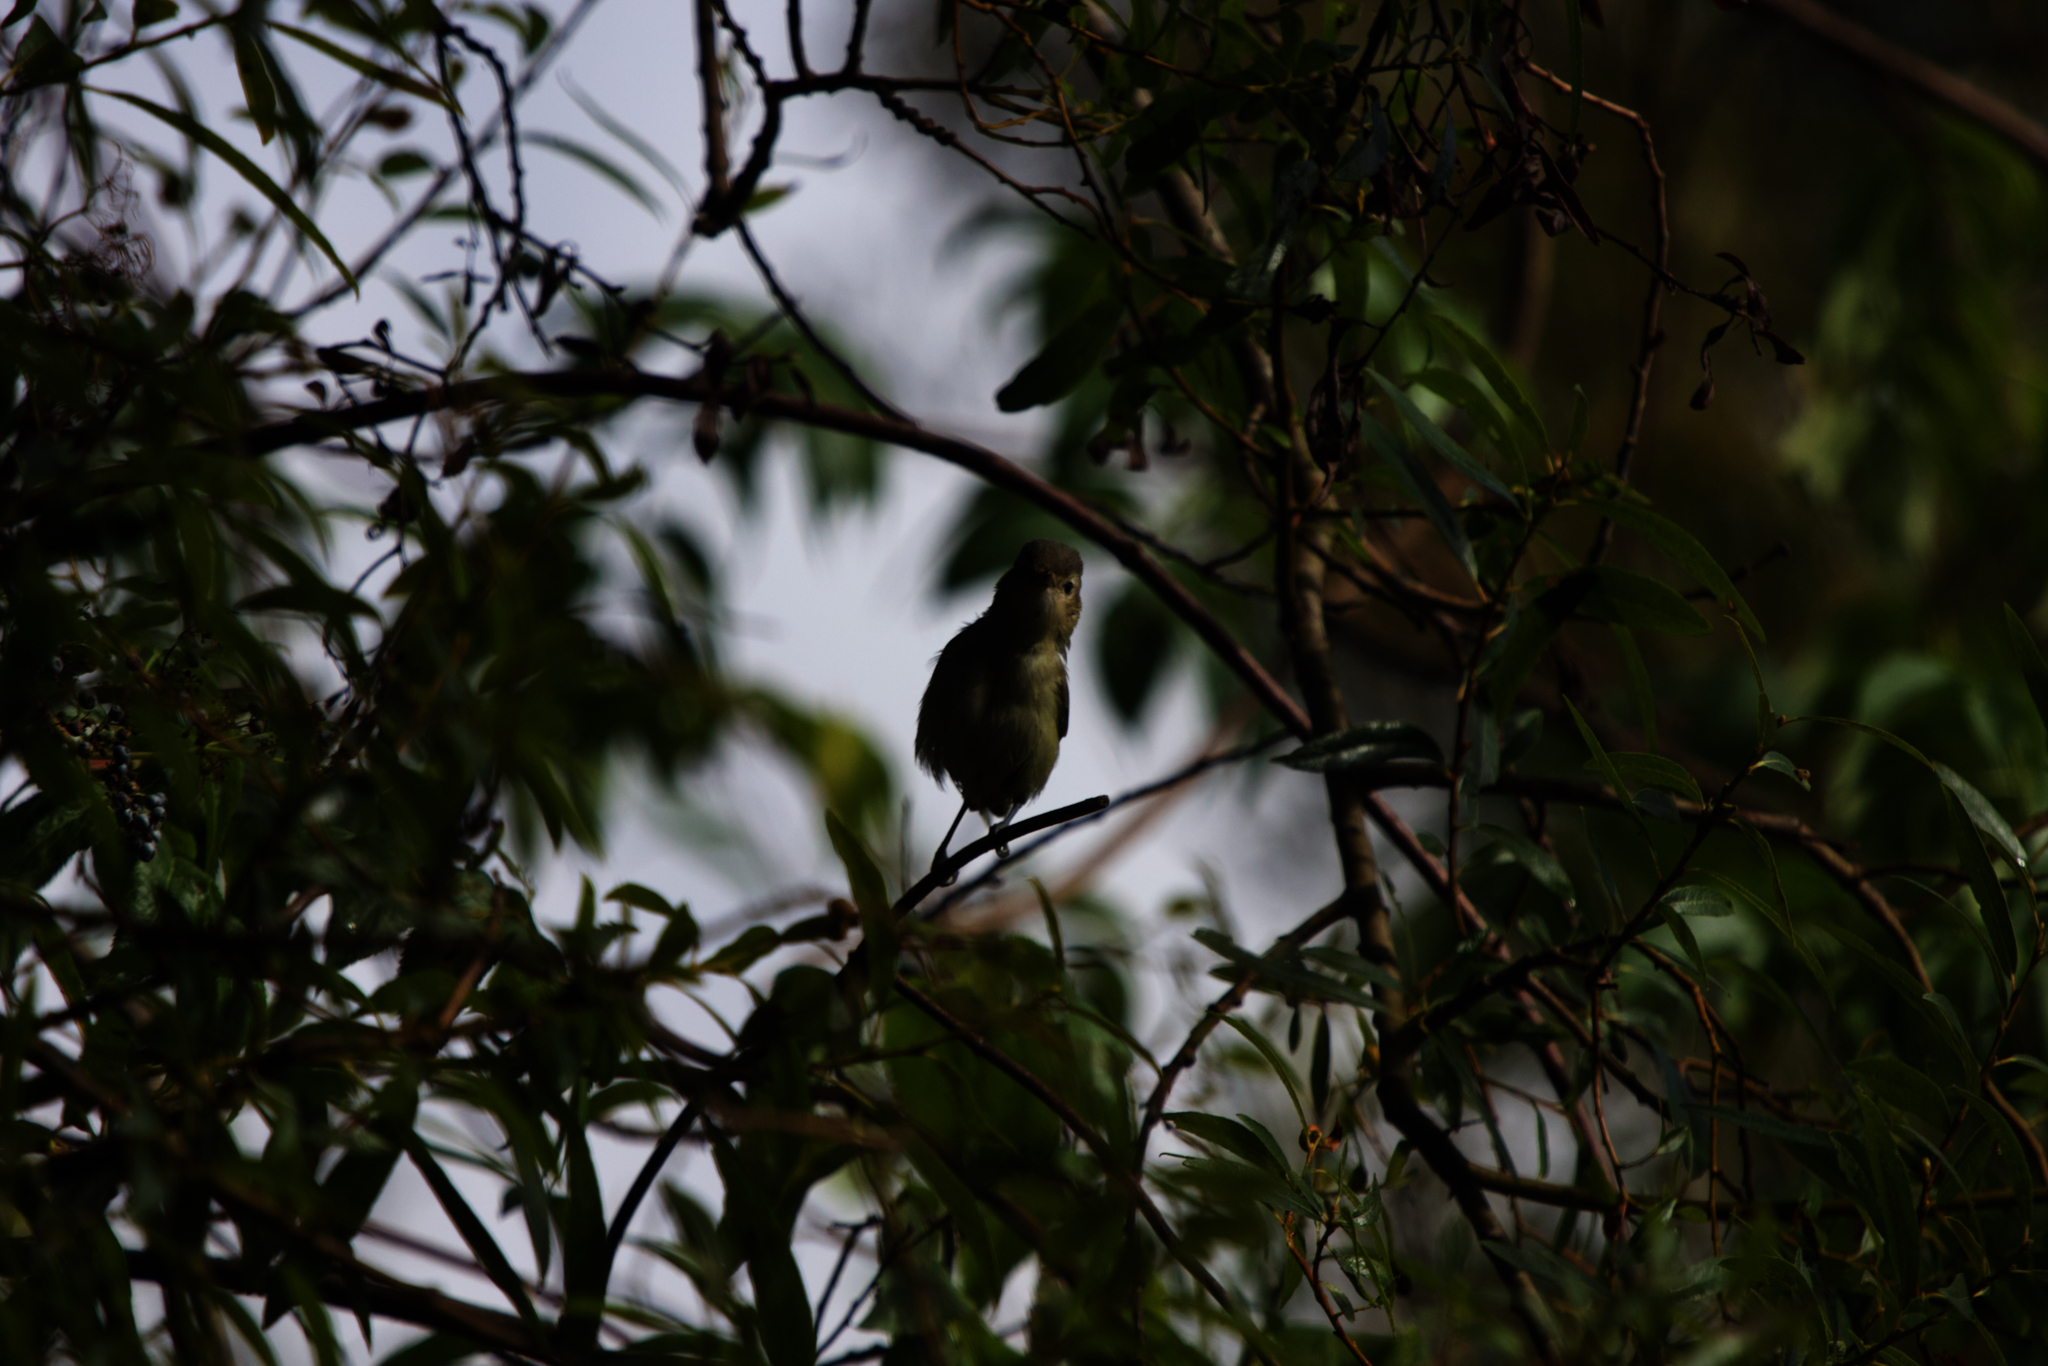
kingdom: Animalia
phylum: Chordata
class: Aves
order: Passeriformes
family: Vireonidae
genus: Vireo
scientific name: Vireo gilvus
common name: Warbling vireo
